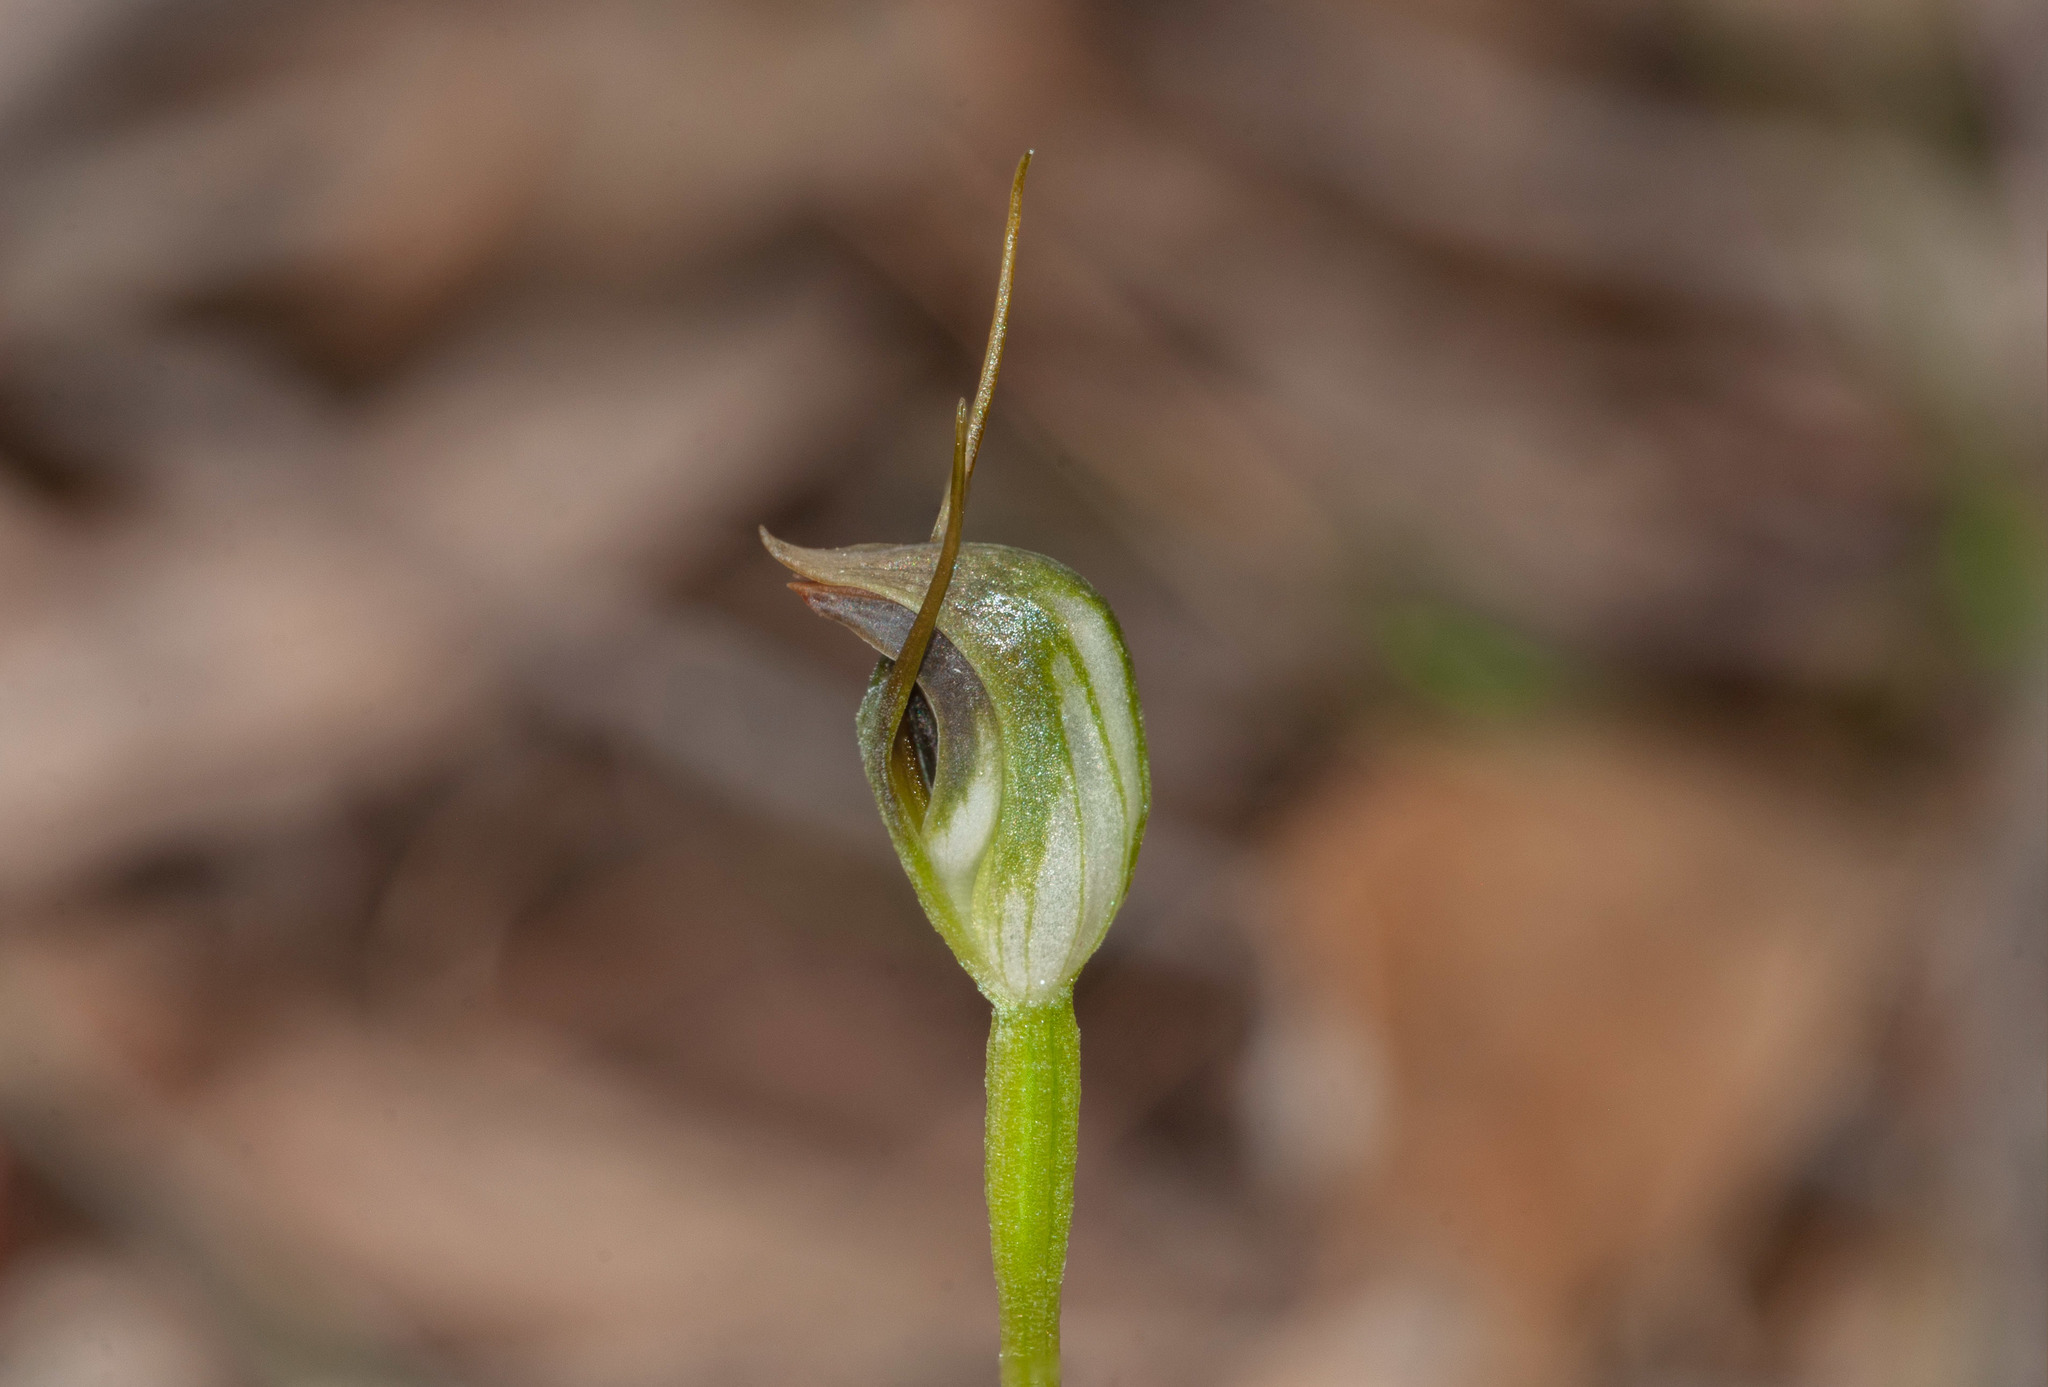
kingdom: Plantae
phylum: Tracheophyta
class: Liliopsida
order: Asparagales
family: Orchidaceae
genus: Pterostylis
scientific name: Pterostylis pedunculata
